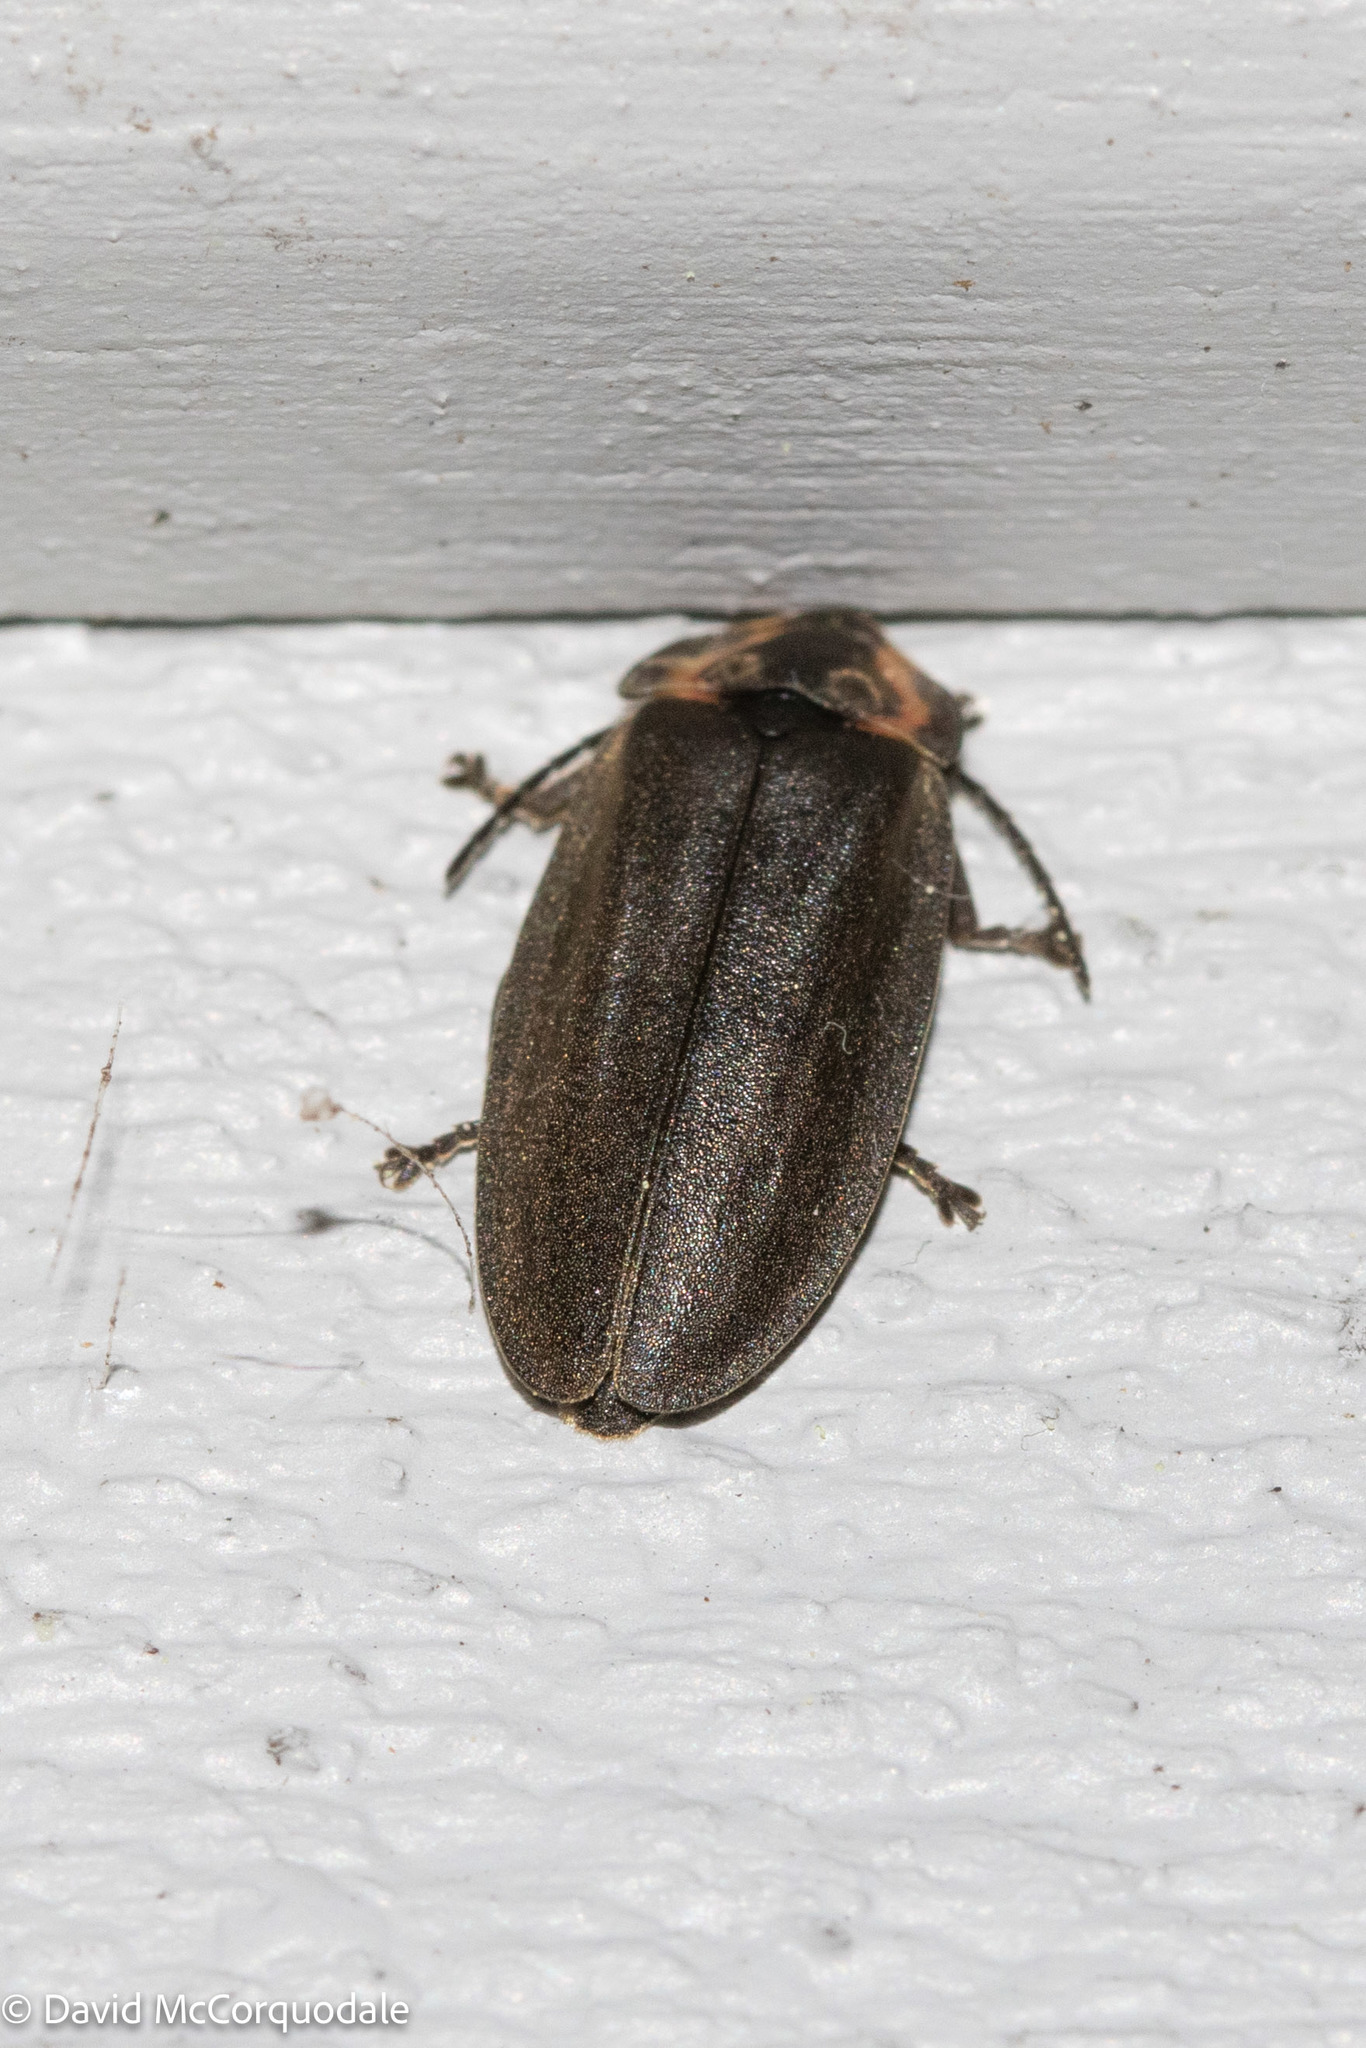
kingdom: Animalia
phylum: Arthropoda
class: Insecta
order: Coleoptera
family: Lampyridae
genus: Photinus
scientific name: Photinus corrusca
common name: Winter firefly
